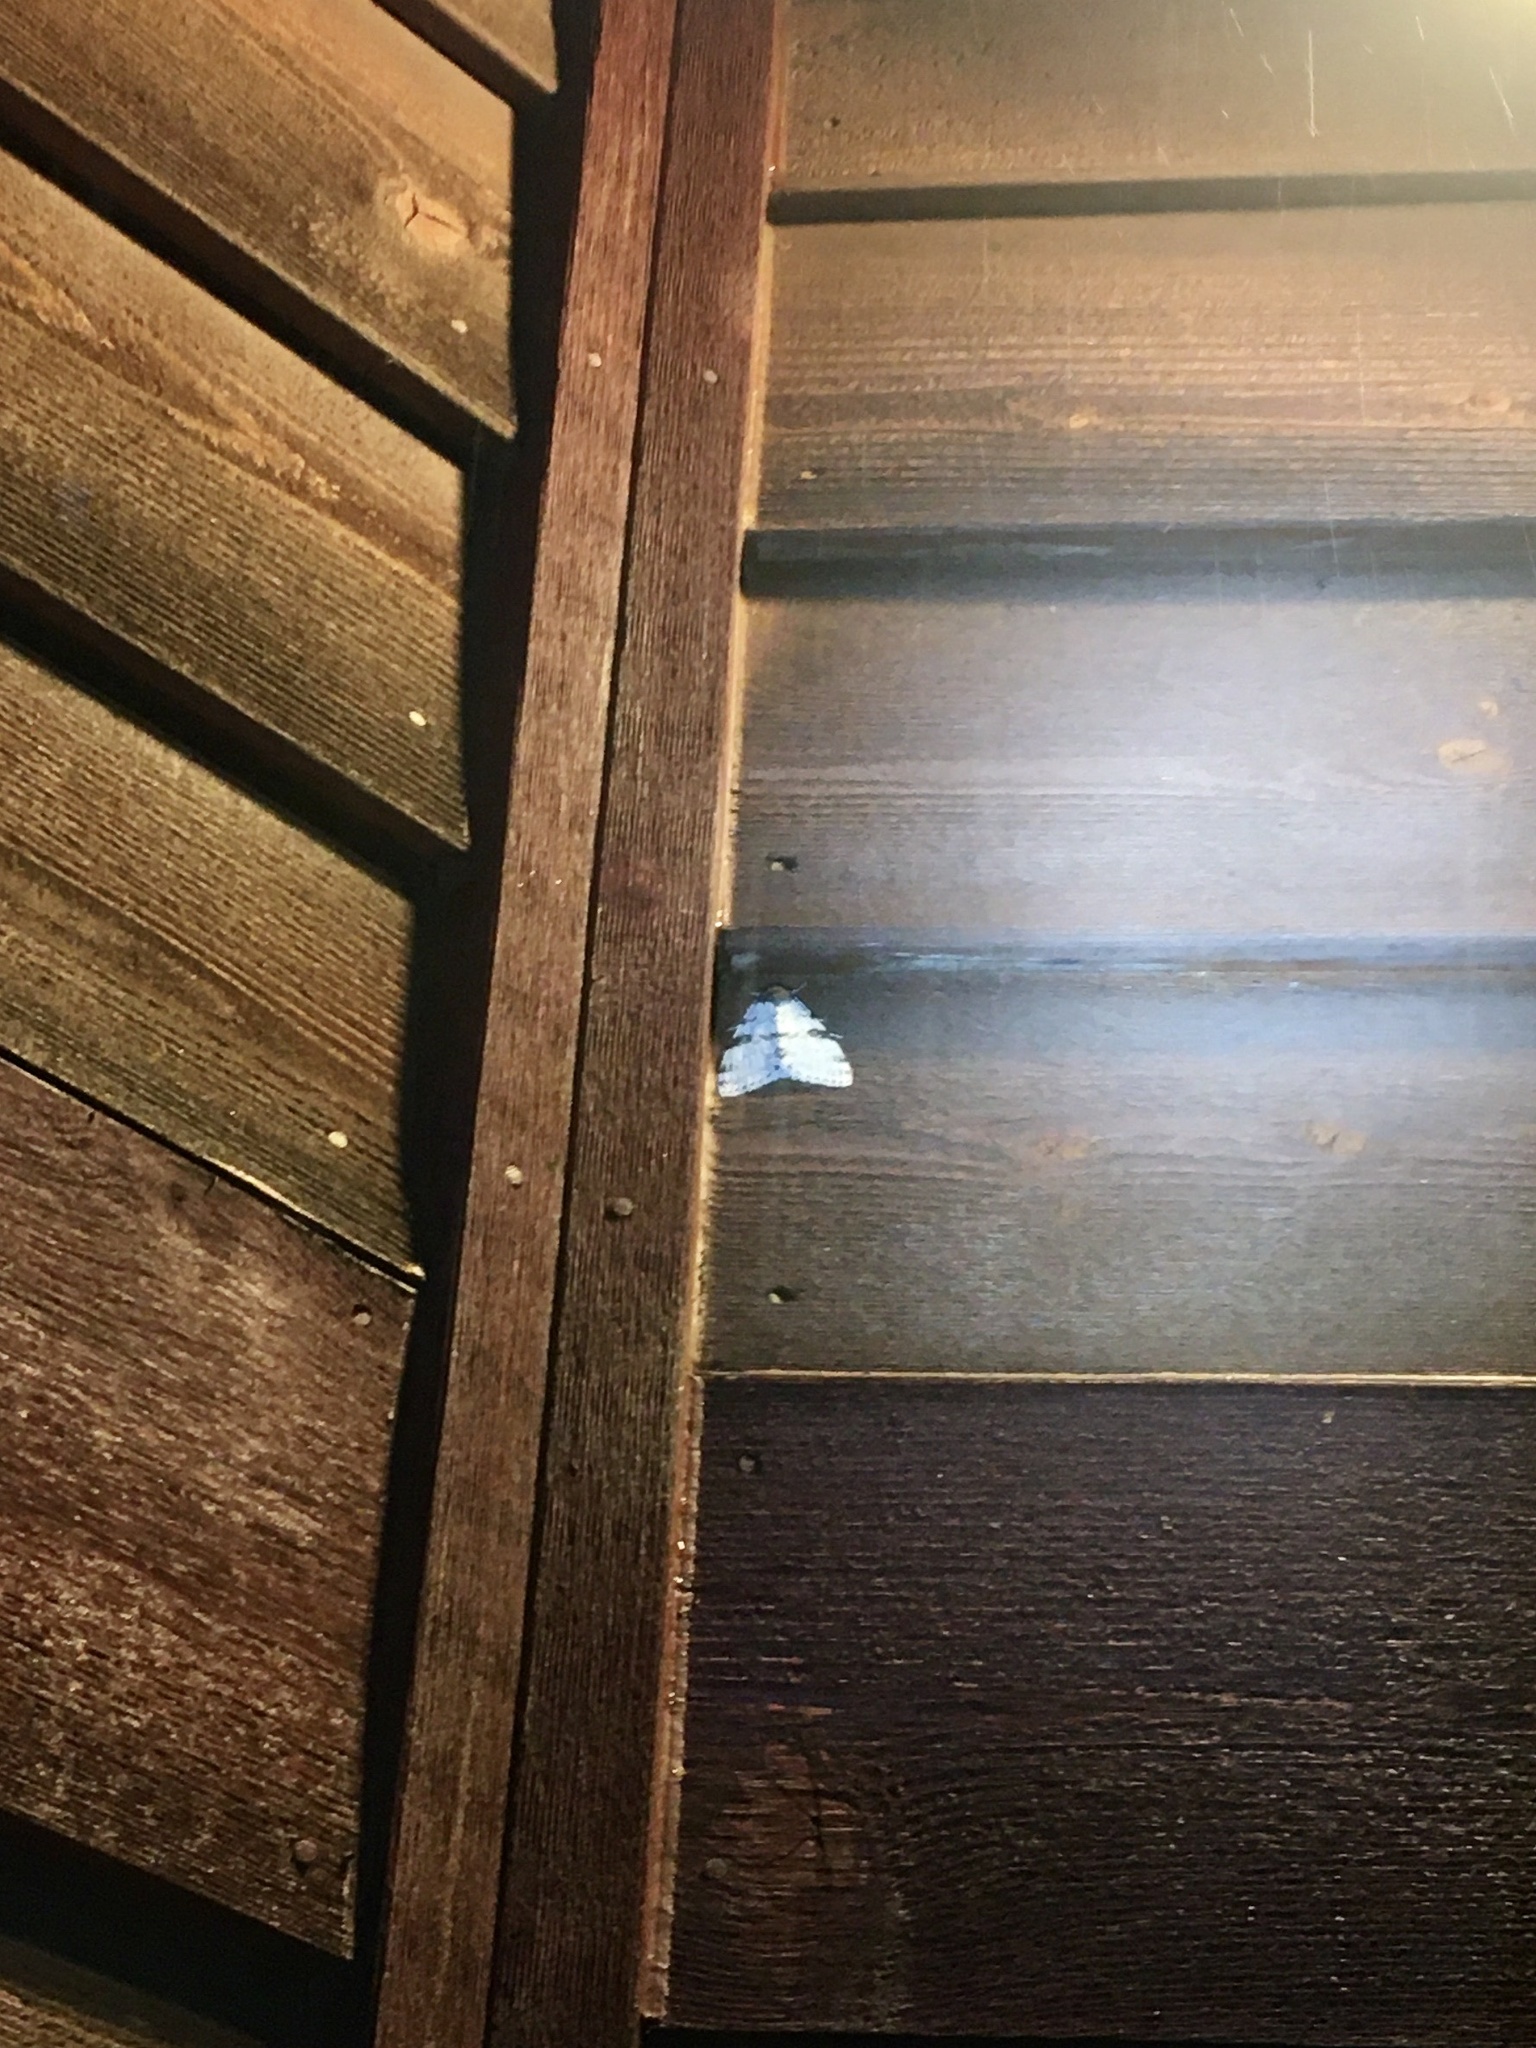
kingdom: Animalia
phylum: Arthropoda
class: Insecta
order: Lepidoptera
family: Erebidae
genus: Catocala
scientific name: Catocala relicta
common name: White underwing
